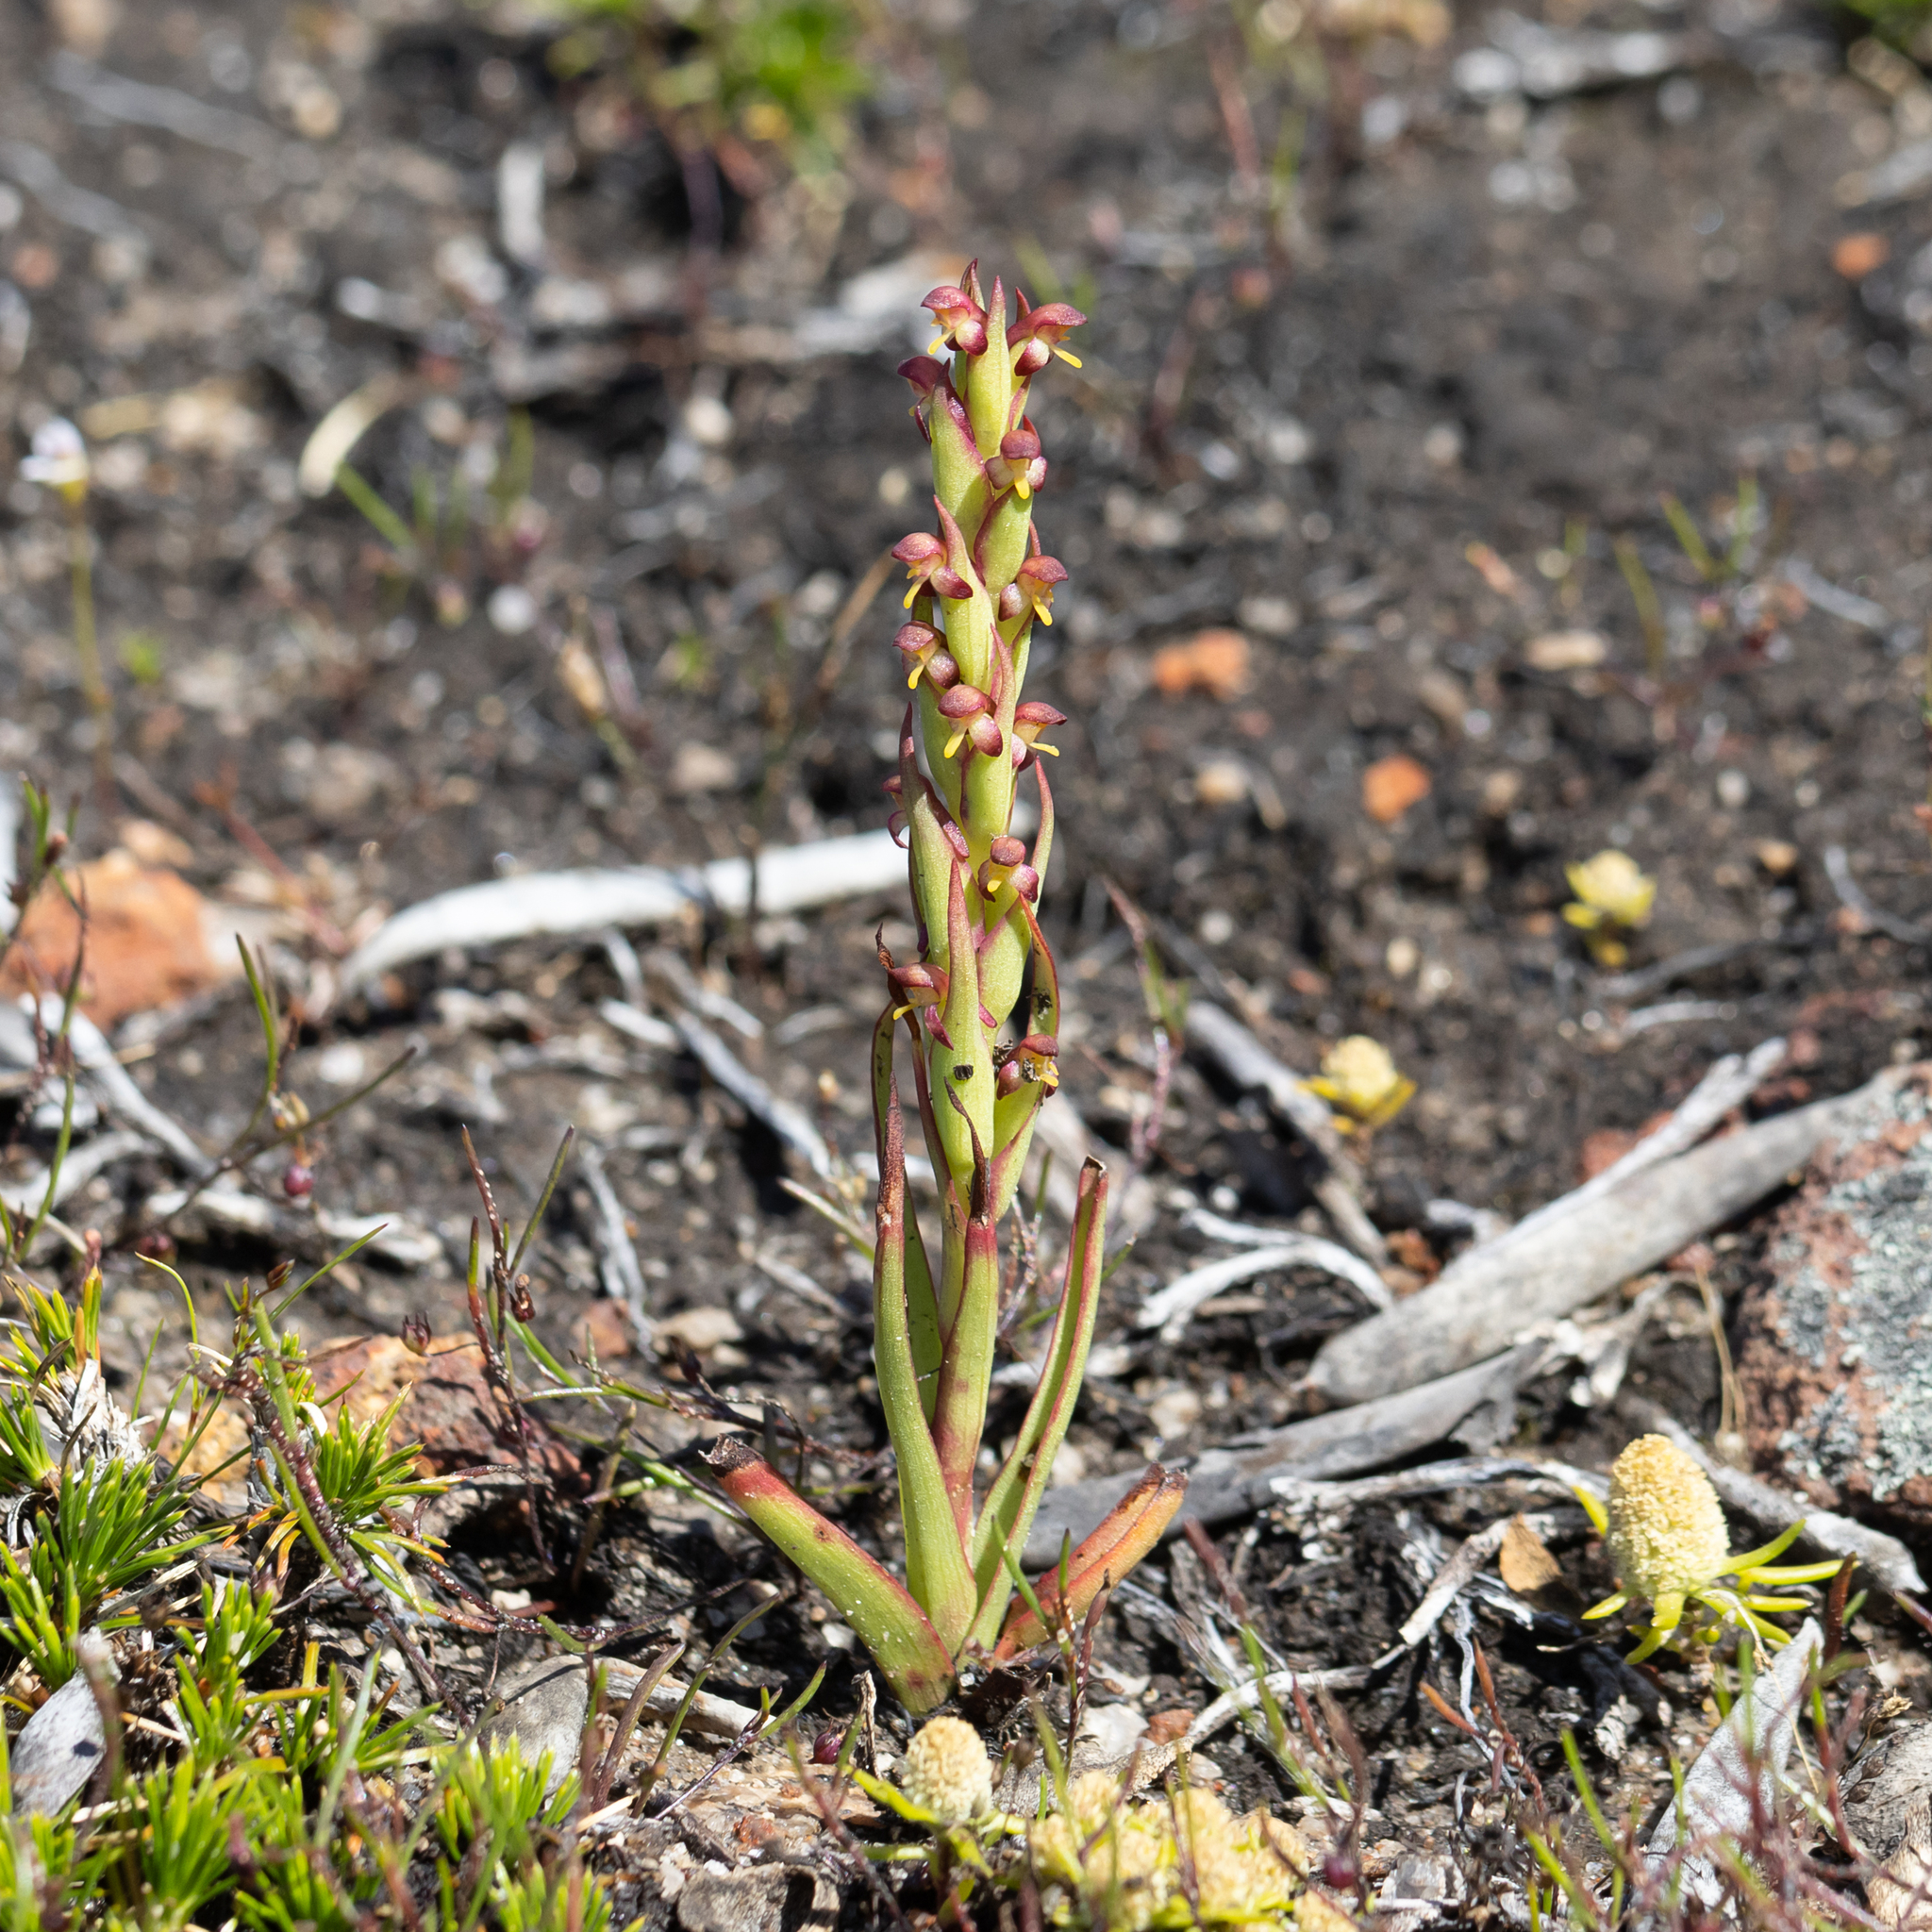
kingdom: Plantae
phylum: Tracheophyta
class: Liliopsida
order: Asparagales
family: Orchidaceae
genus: Disa
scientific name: Disa bracteata
